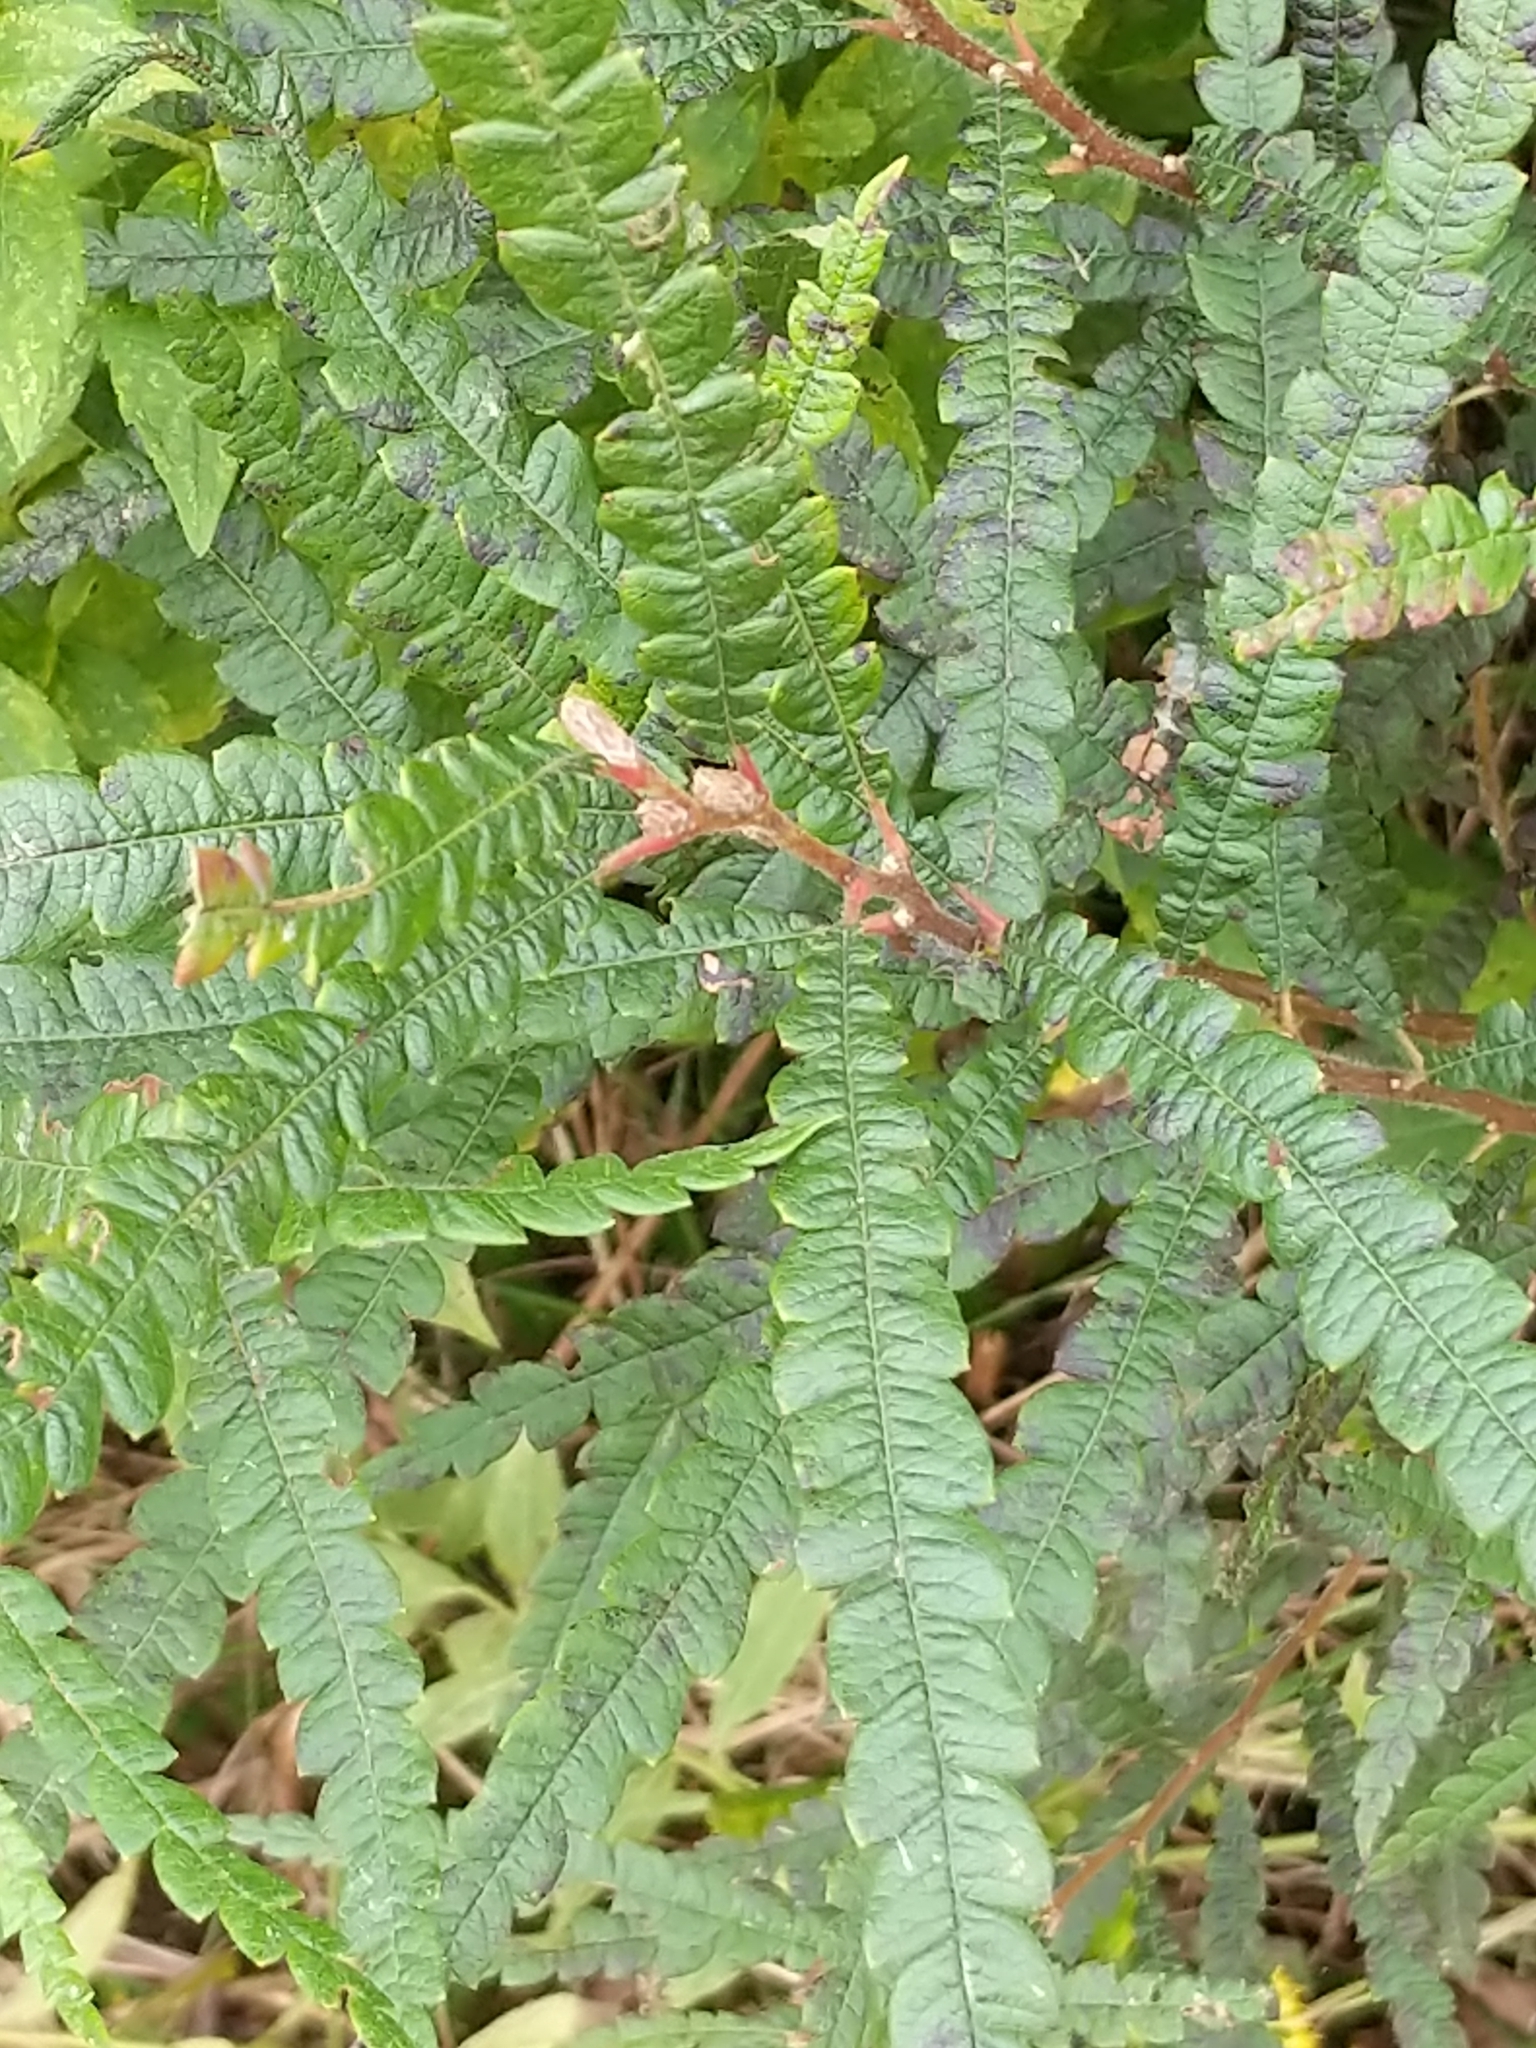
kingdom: Plantae
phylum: Tracheophyta
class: Magnoliopsida
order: Fagales
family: Myricaceae
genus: Comptonia
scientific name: Comptonia peregrina
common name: Sweet-fern
